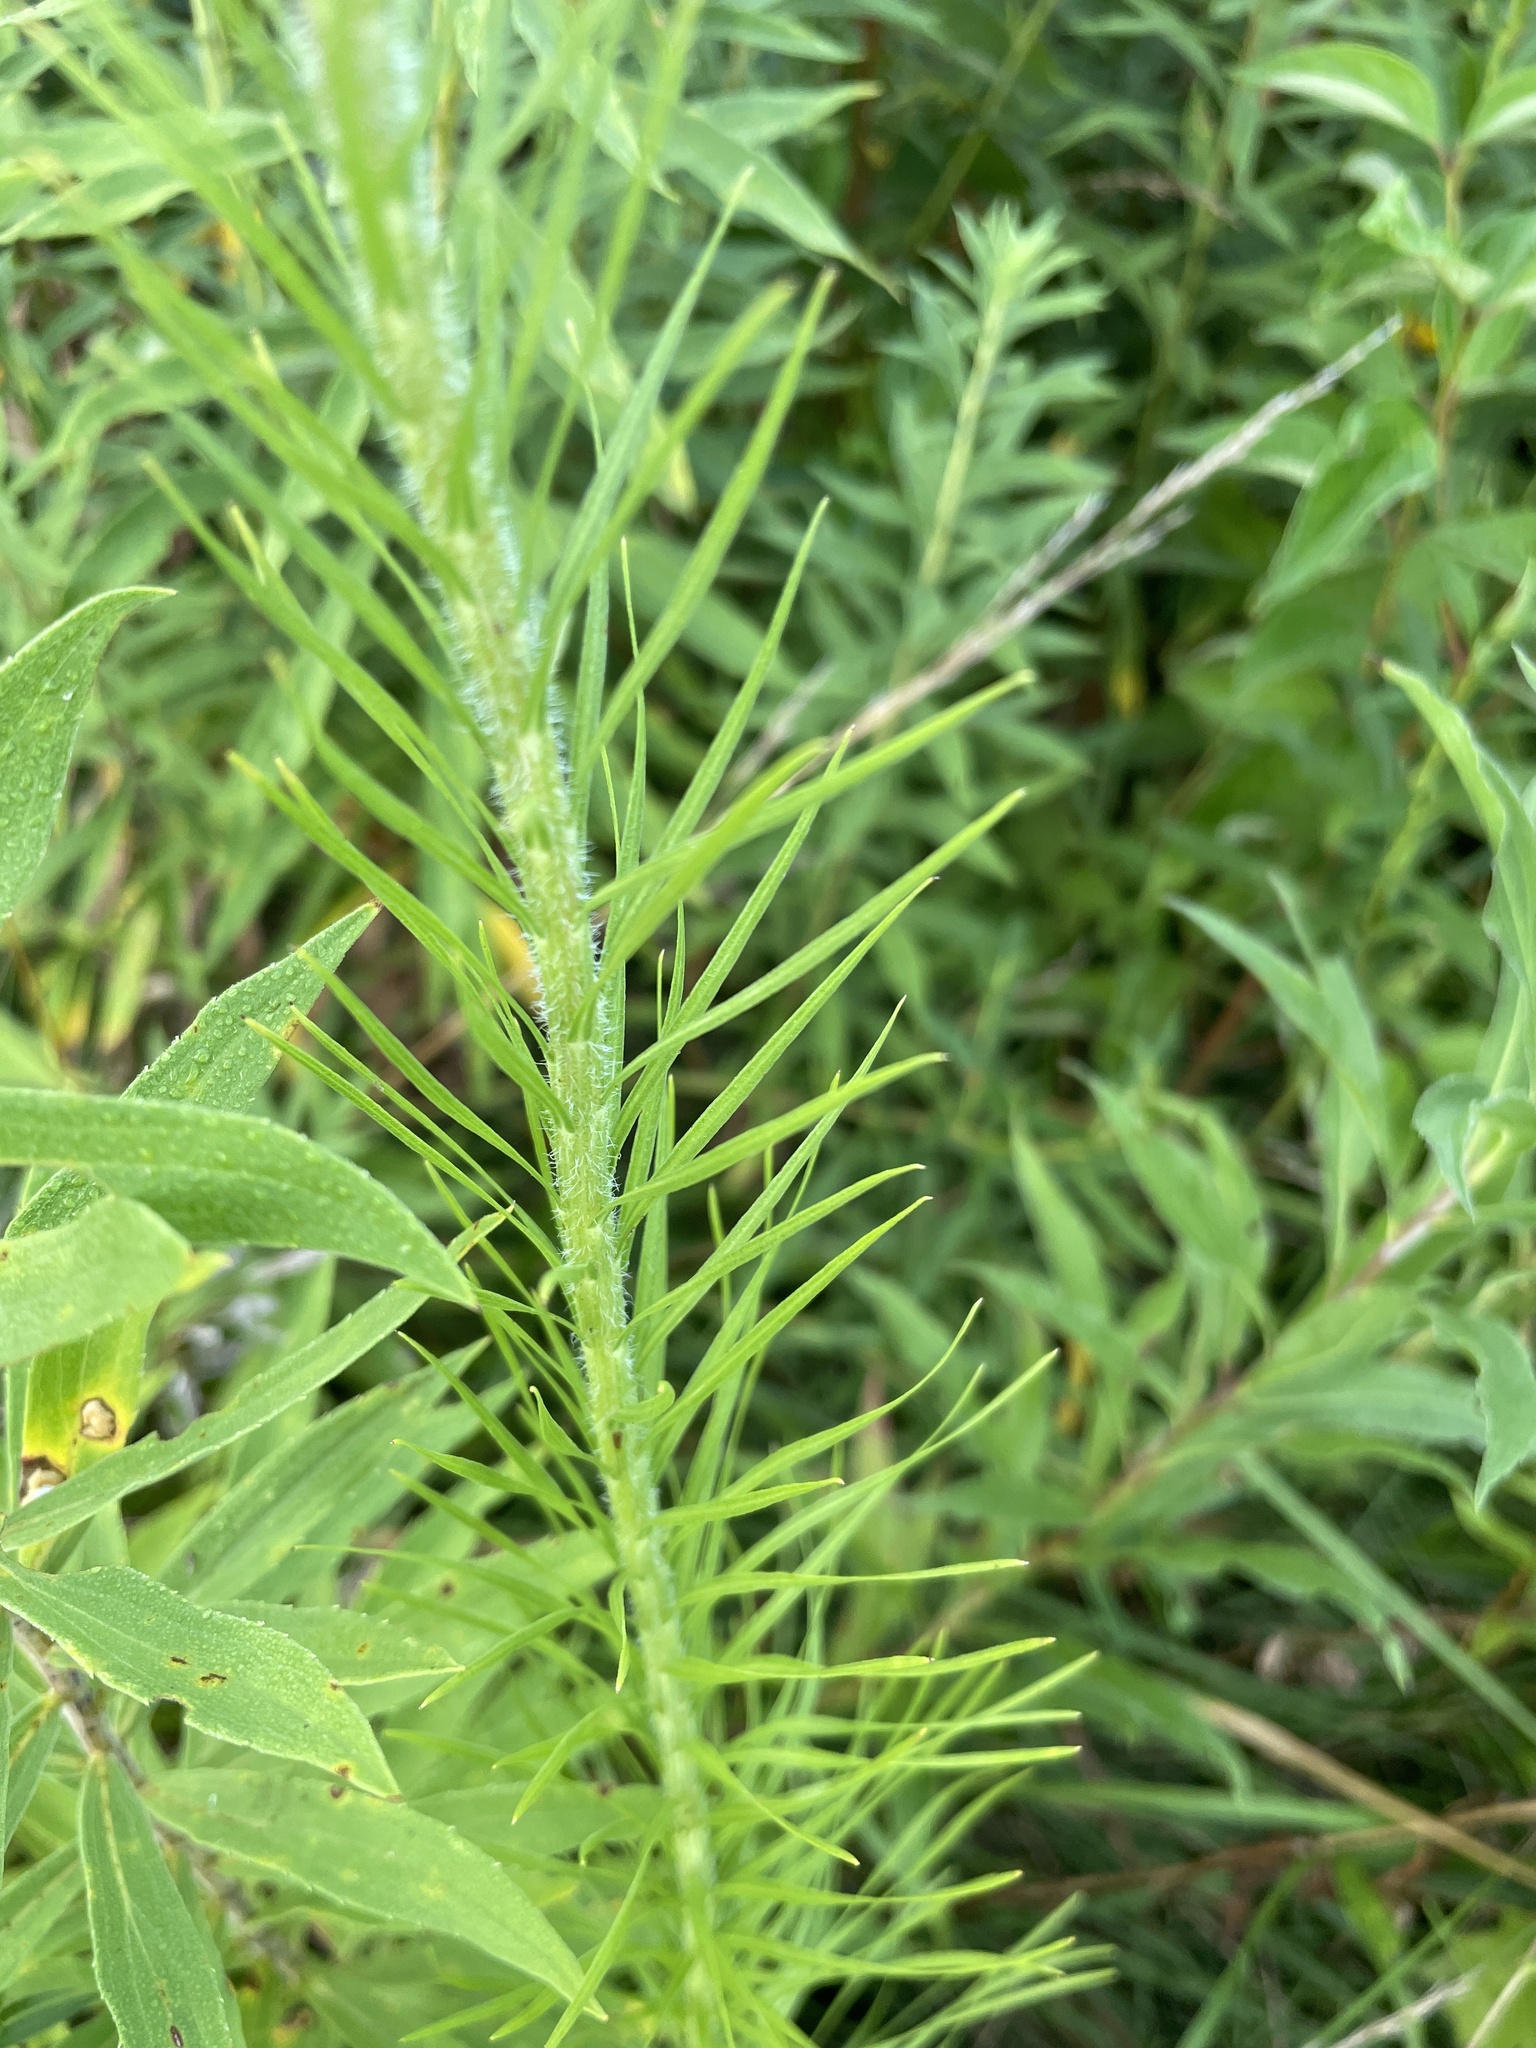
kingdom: Plantae
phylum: Tracheophyta
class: Magnoliopsida
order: Asterales
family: Asteraceae
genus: Liatris
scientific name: Liatris pycnostachya
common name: Cattail gayfeather
